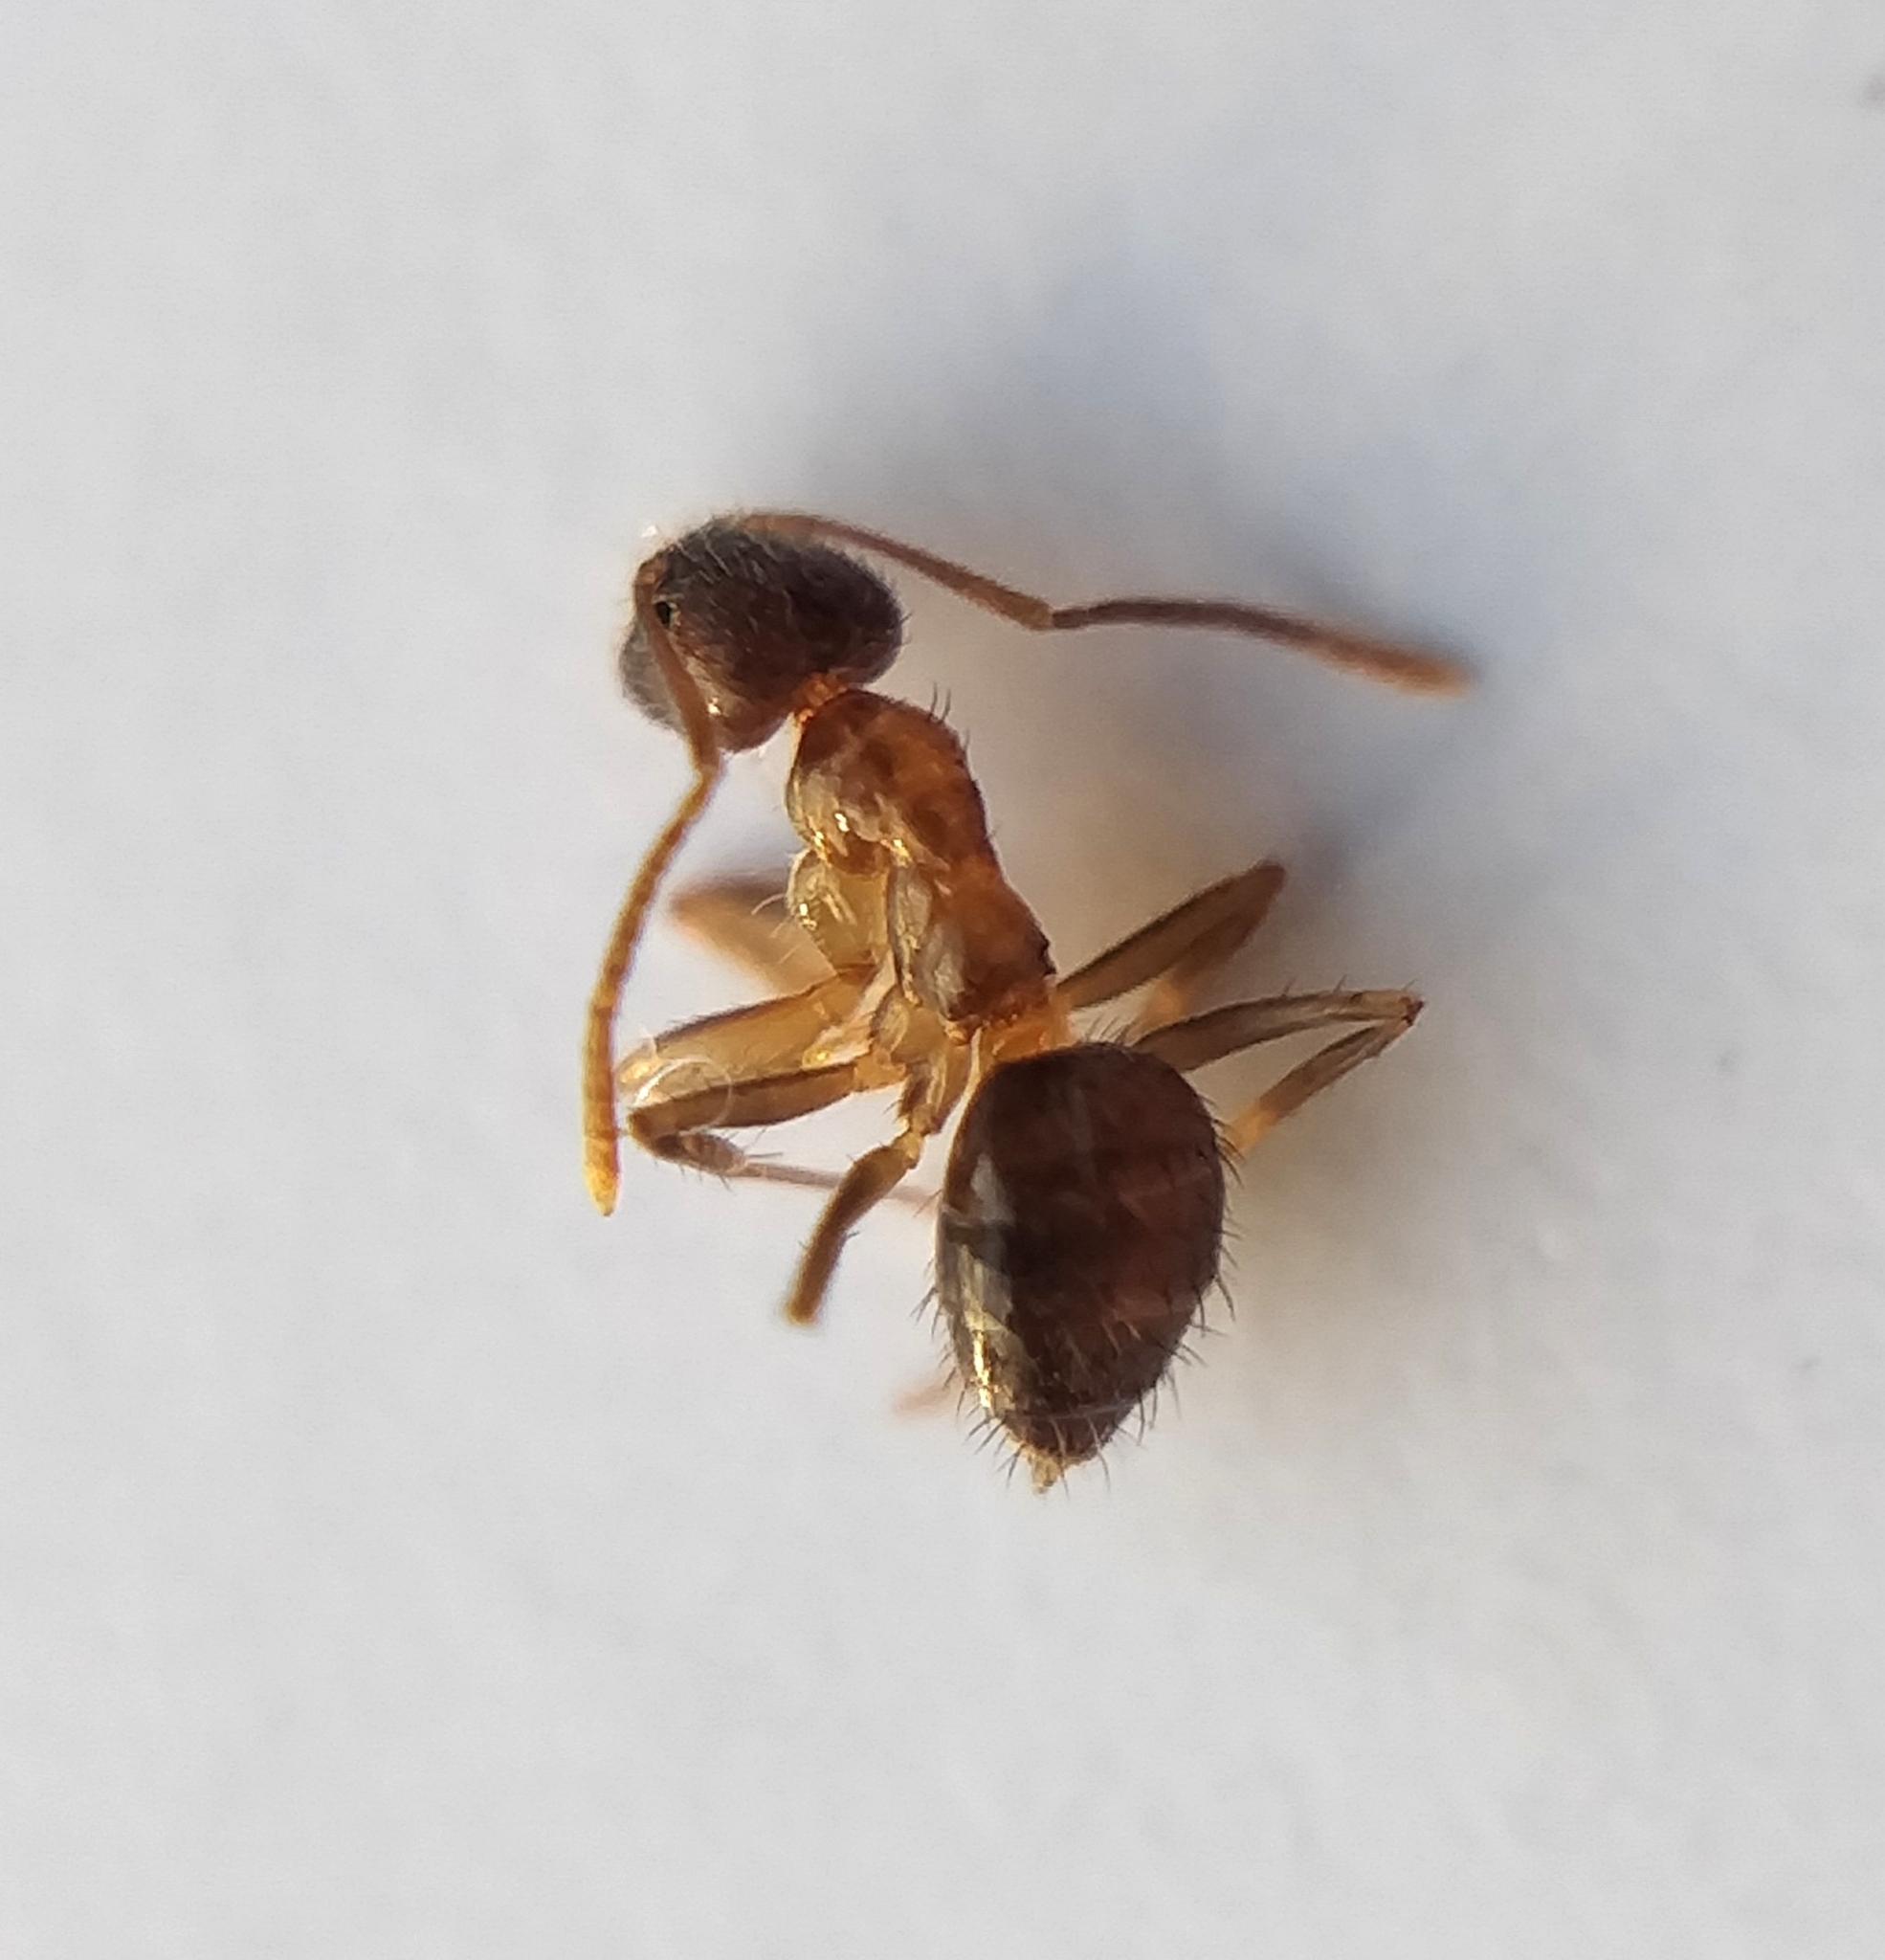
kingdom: Animalia
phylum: Arthropoda
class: Insecta
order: Hymenoptera
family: Formicidae
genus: Paratrechina
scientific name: Paratrechina jaegerskioeldi
